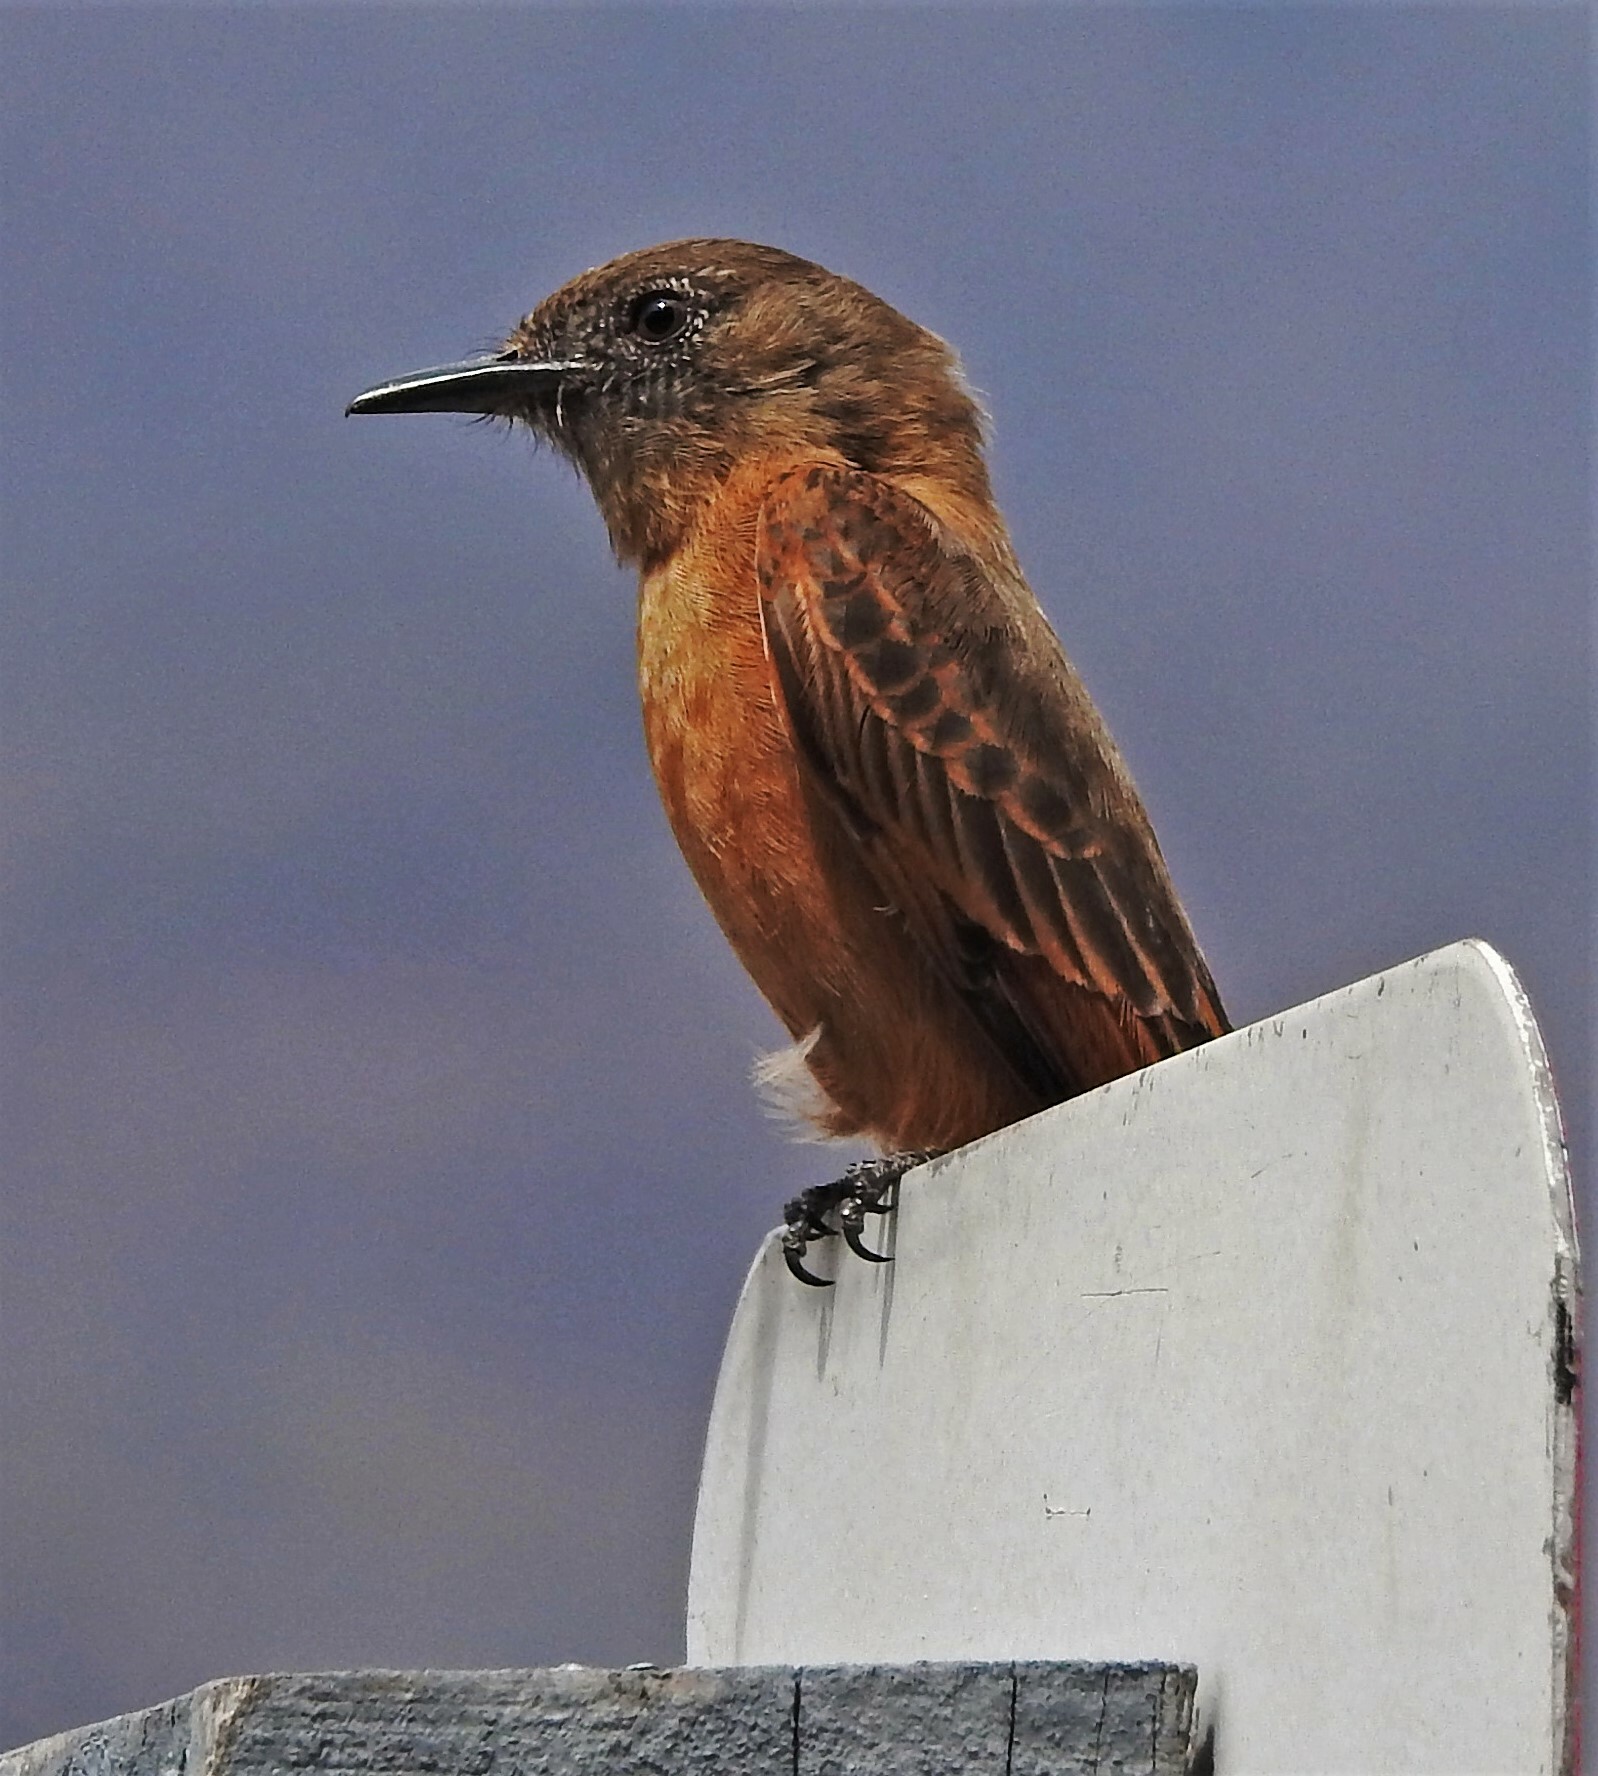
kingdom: Animalia
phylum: Chordata
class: Aves
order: Passeriformes
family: Tyrannidae
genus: Hirundinea
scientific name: Hirundinea ferruginea
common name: Cliff flycatcher
